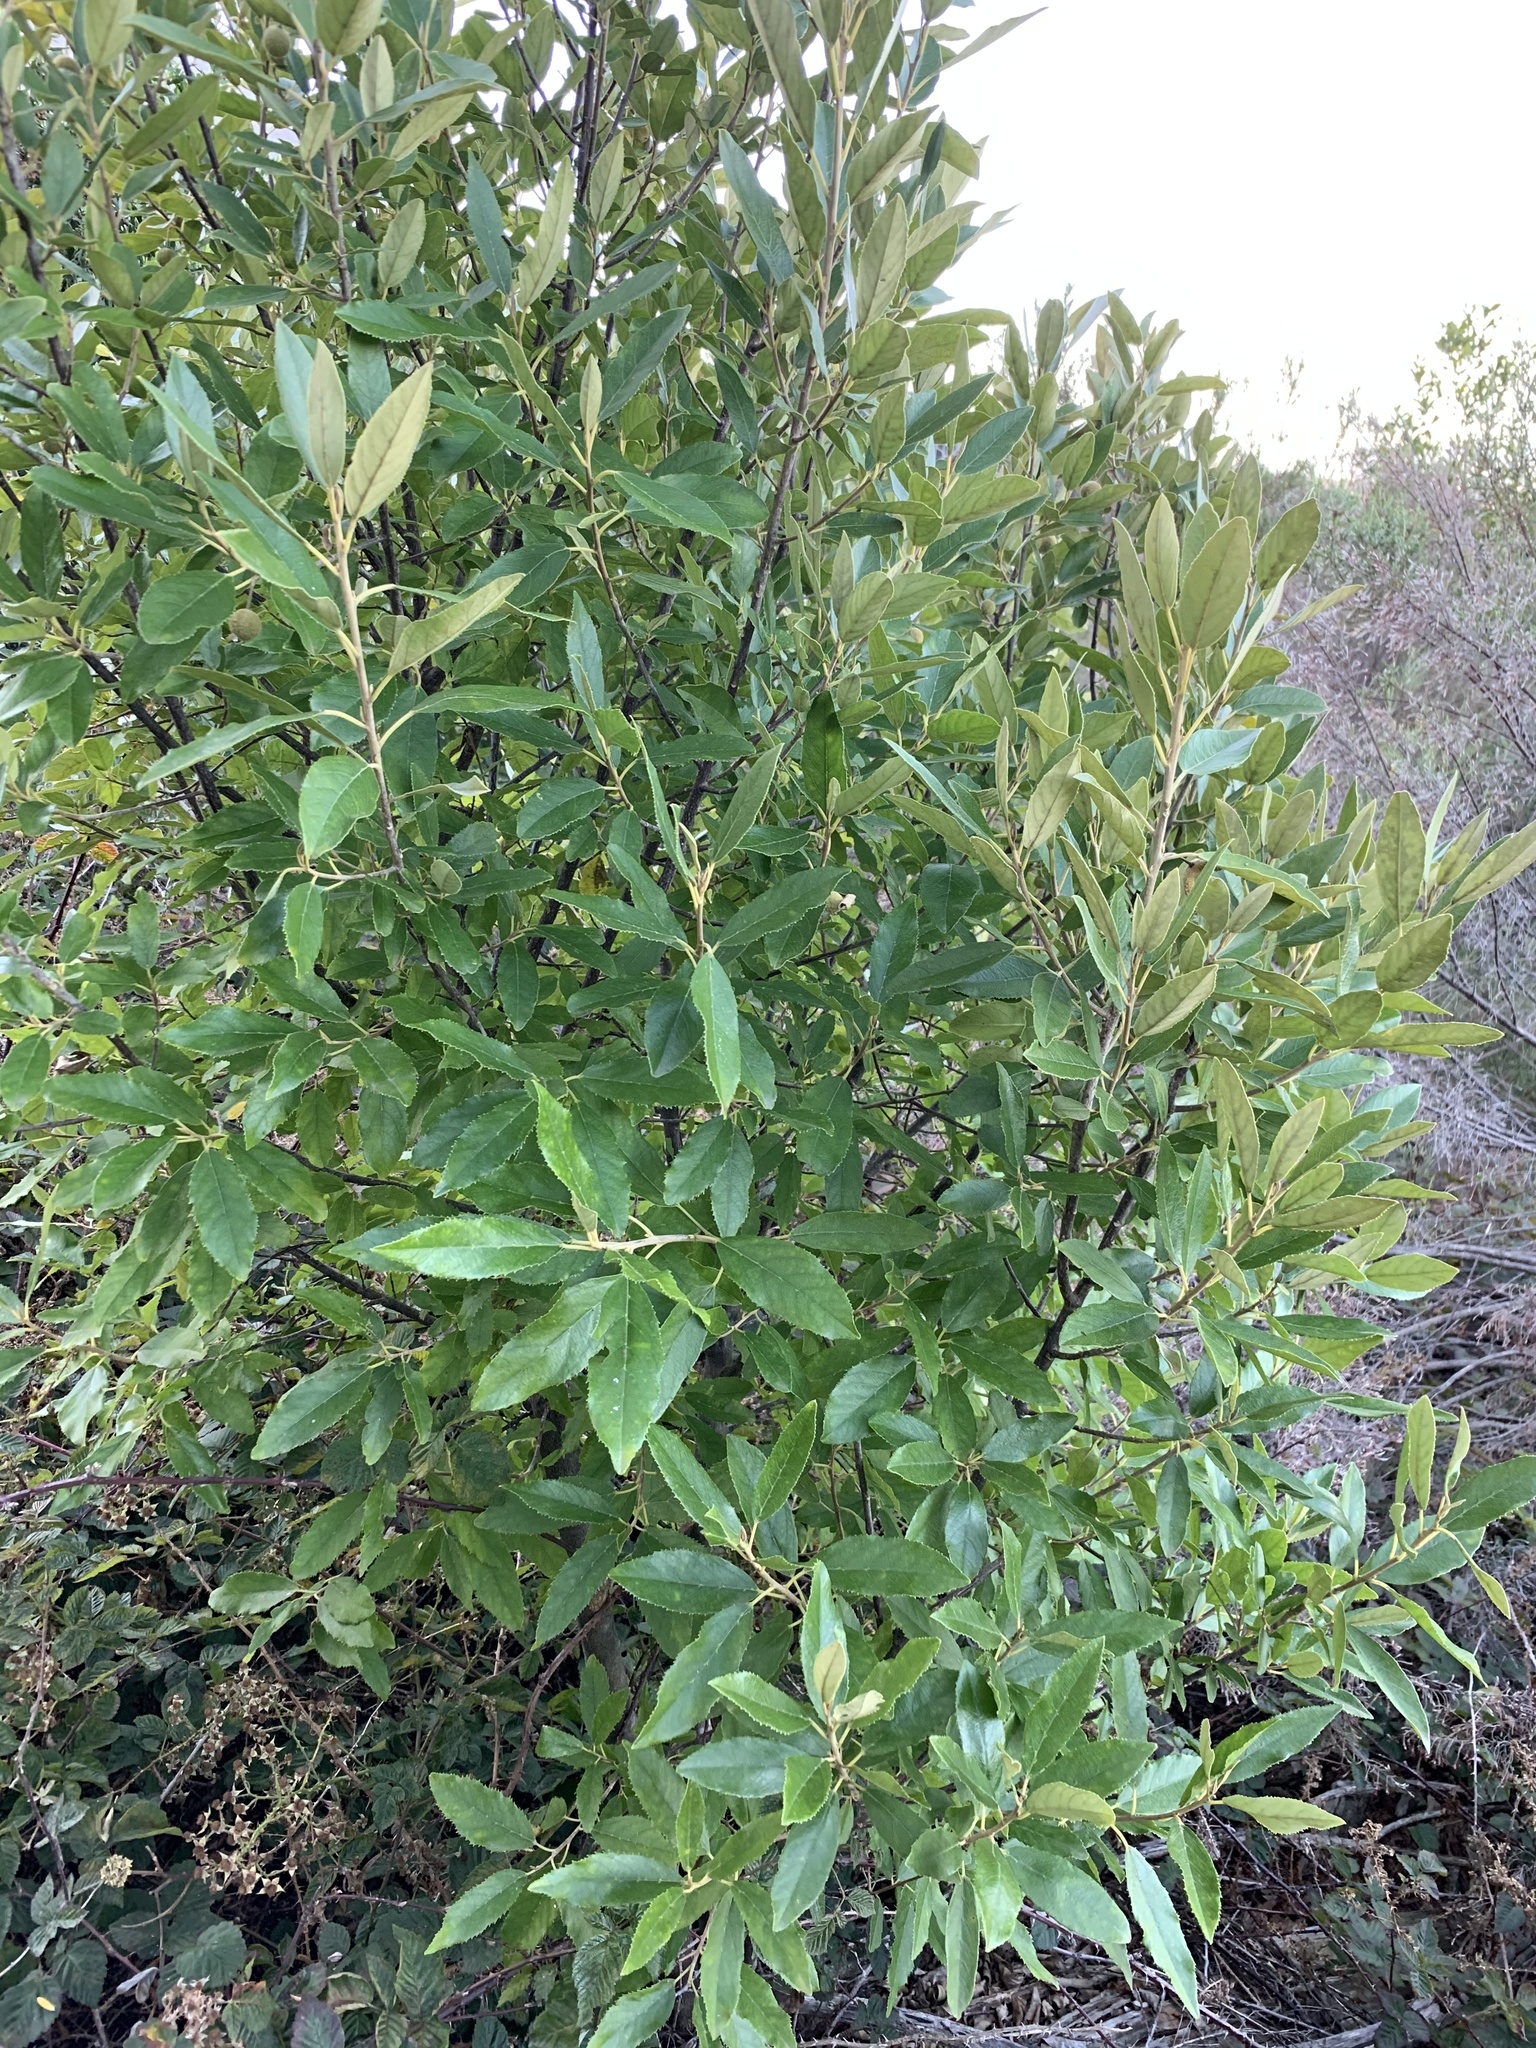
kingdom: Plantae
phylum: Tracheophyta
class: Magnoliopsida
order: Malpighiales
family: Achariaceae
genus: Kiggelaria
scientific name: Kiggelaria africana
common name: Wild peach
